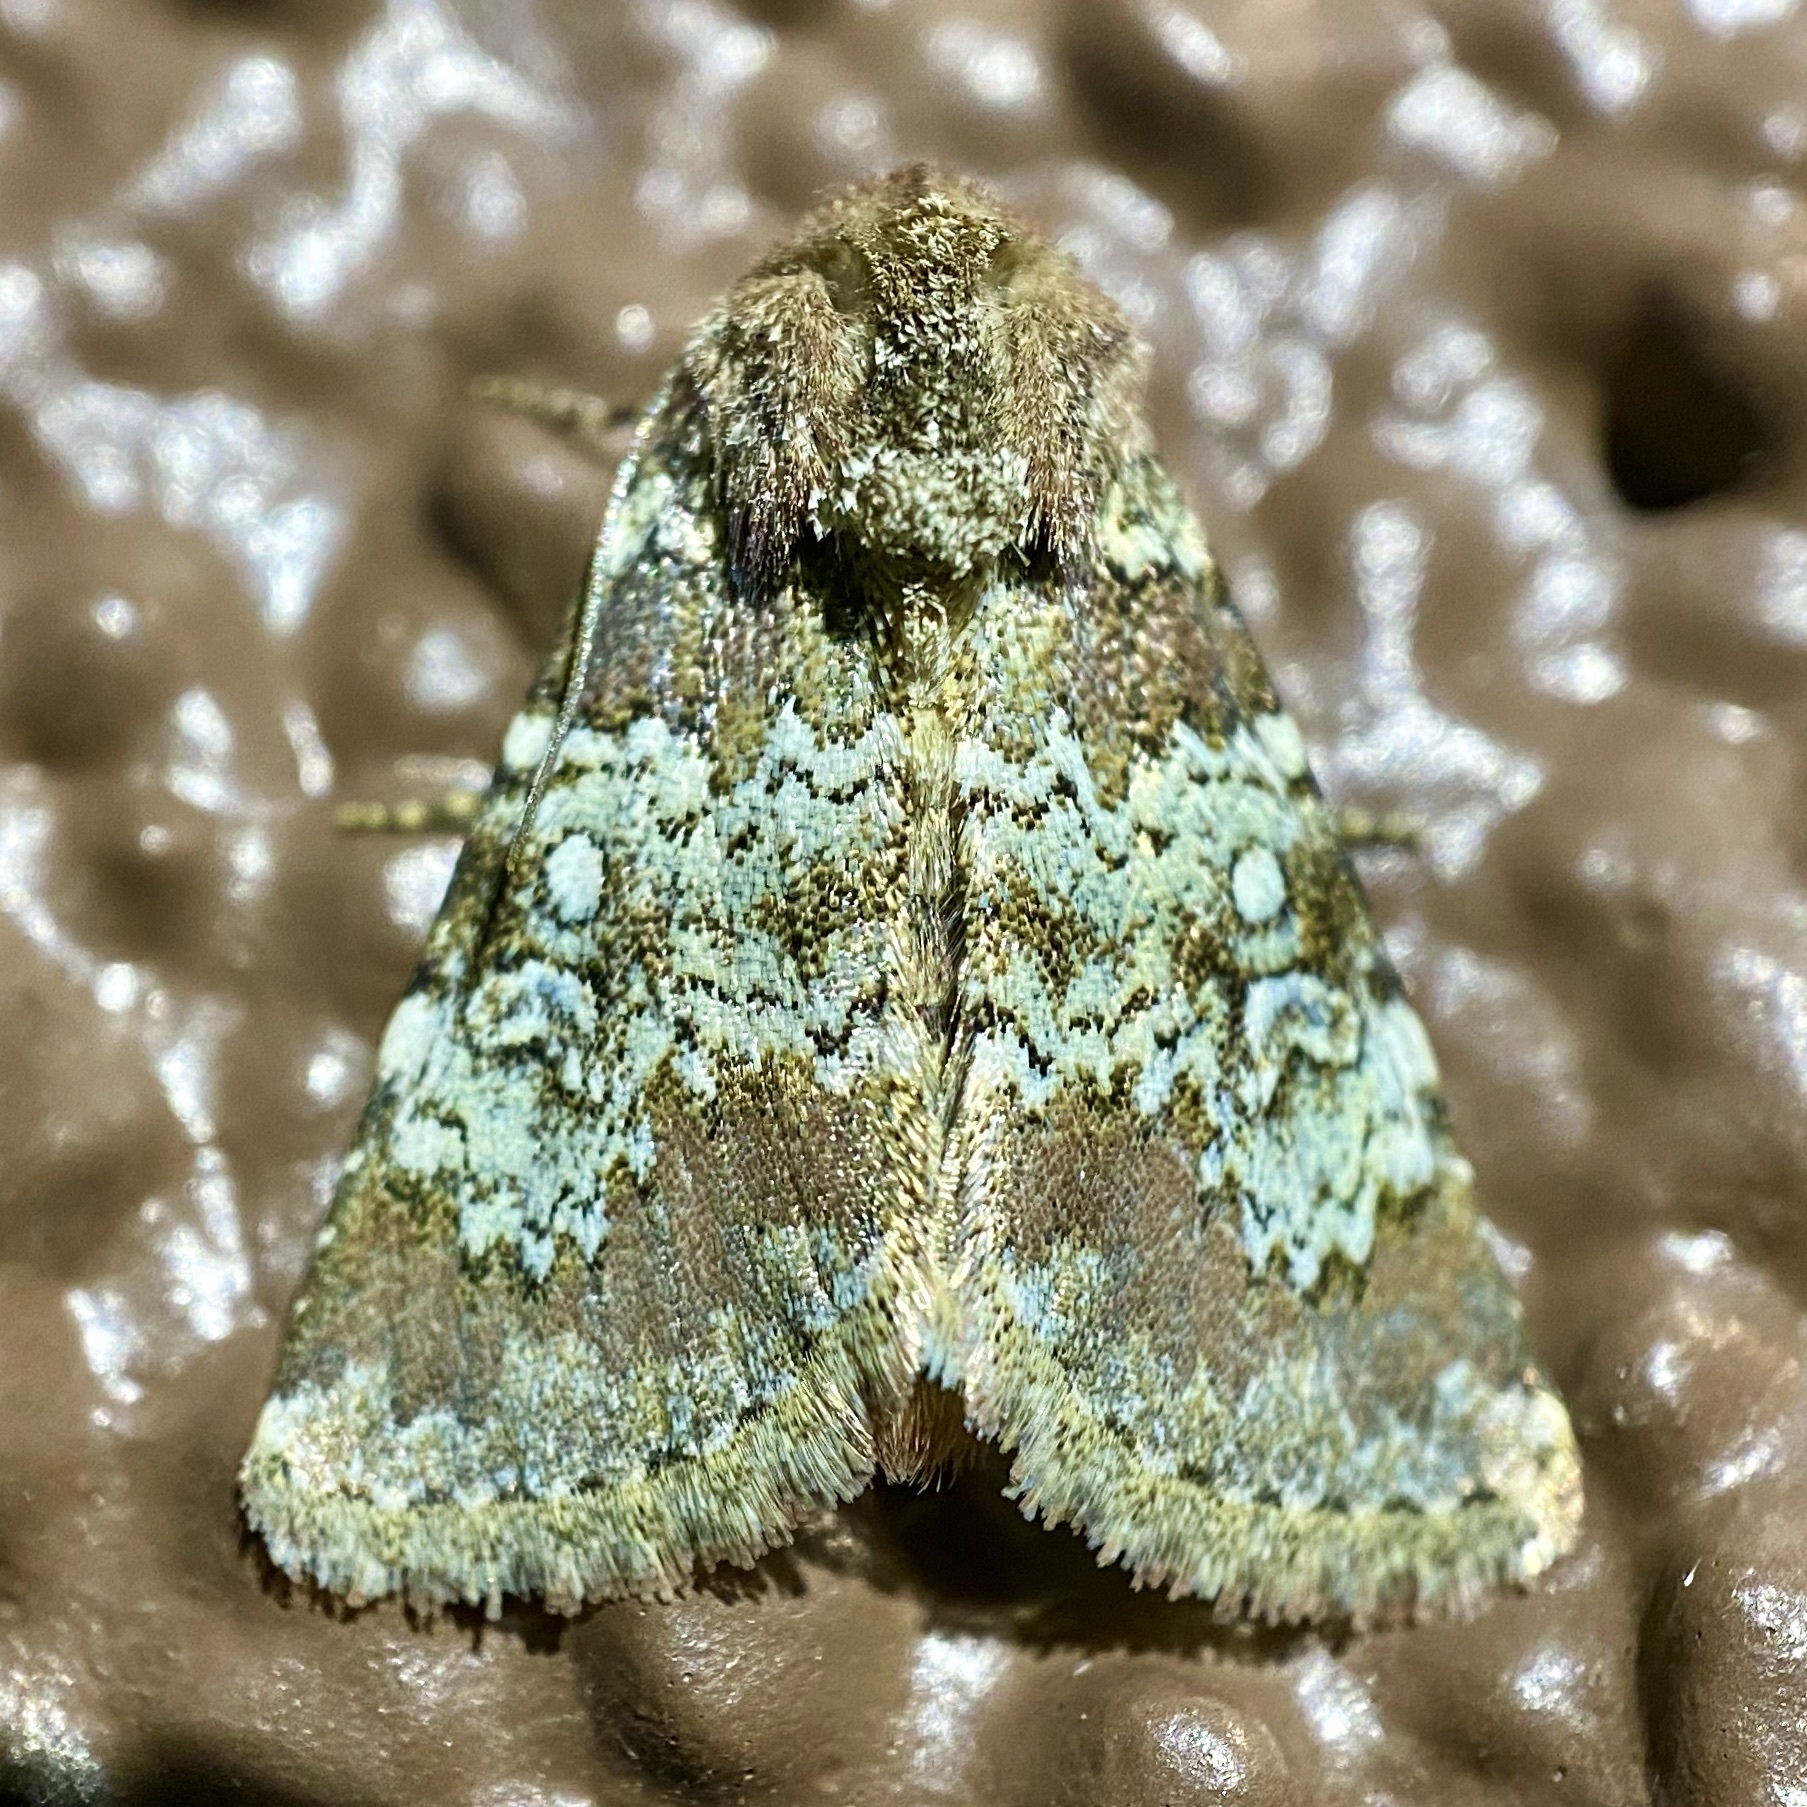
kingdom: Animalia
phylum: Arthropoda
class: Insecta
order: Lepidoptera
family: Noctuidae
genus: Hemibryomima
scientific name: Hemibryomima chryselectra
